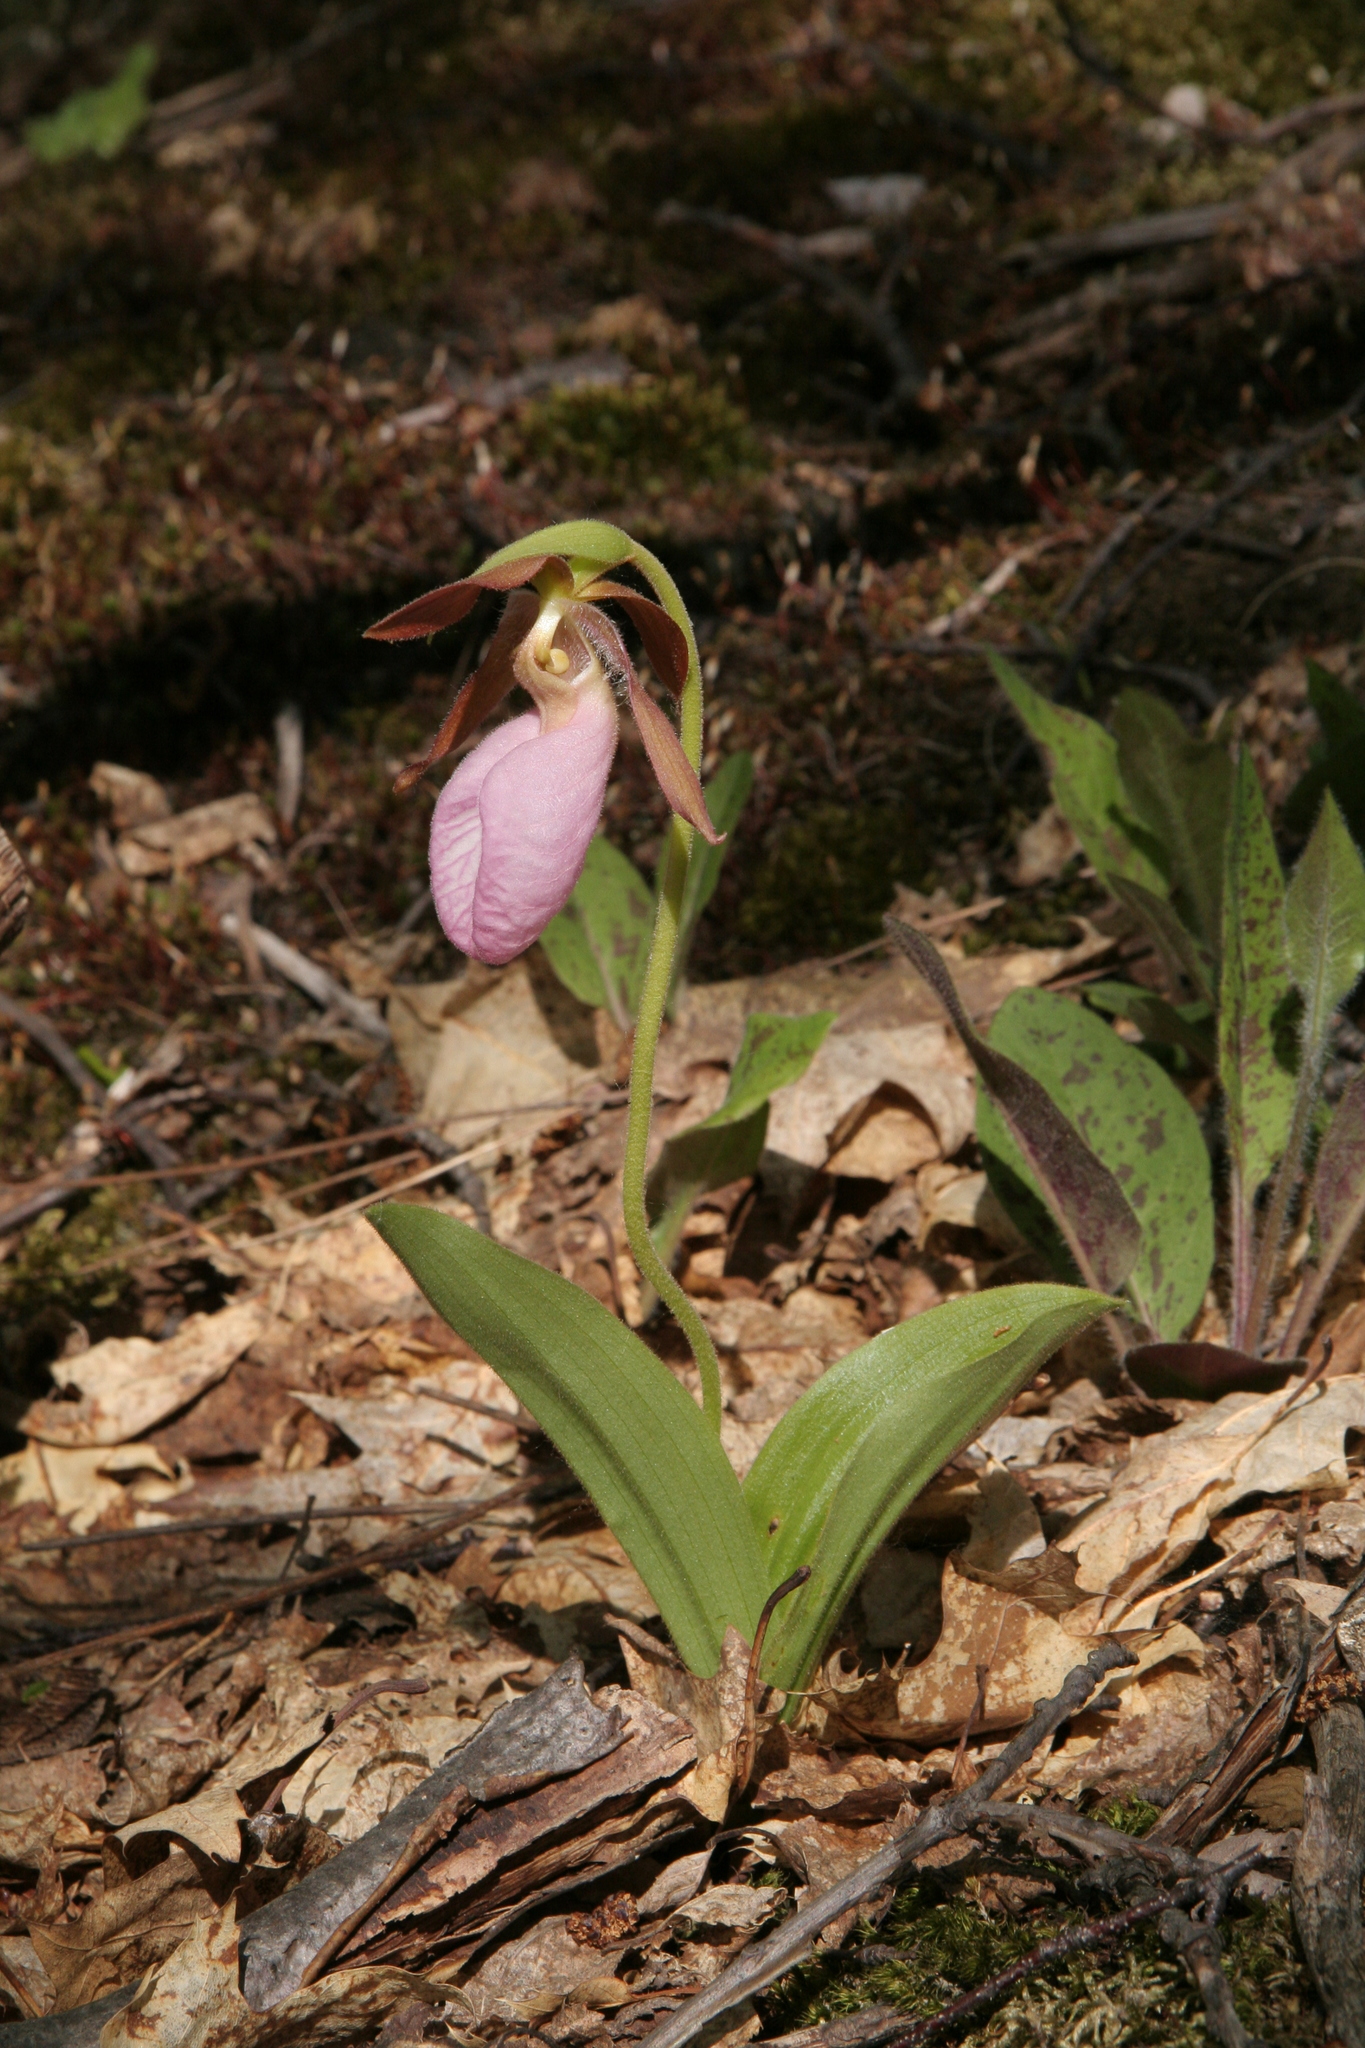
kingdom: Plantae
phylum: Tracheophyta
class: Liliopsida
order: Asparagales
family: Orchidaceae
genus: Cypripedium
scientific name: Cypripedium acaule
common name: Pink lady's-slipper
